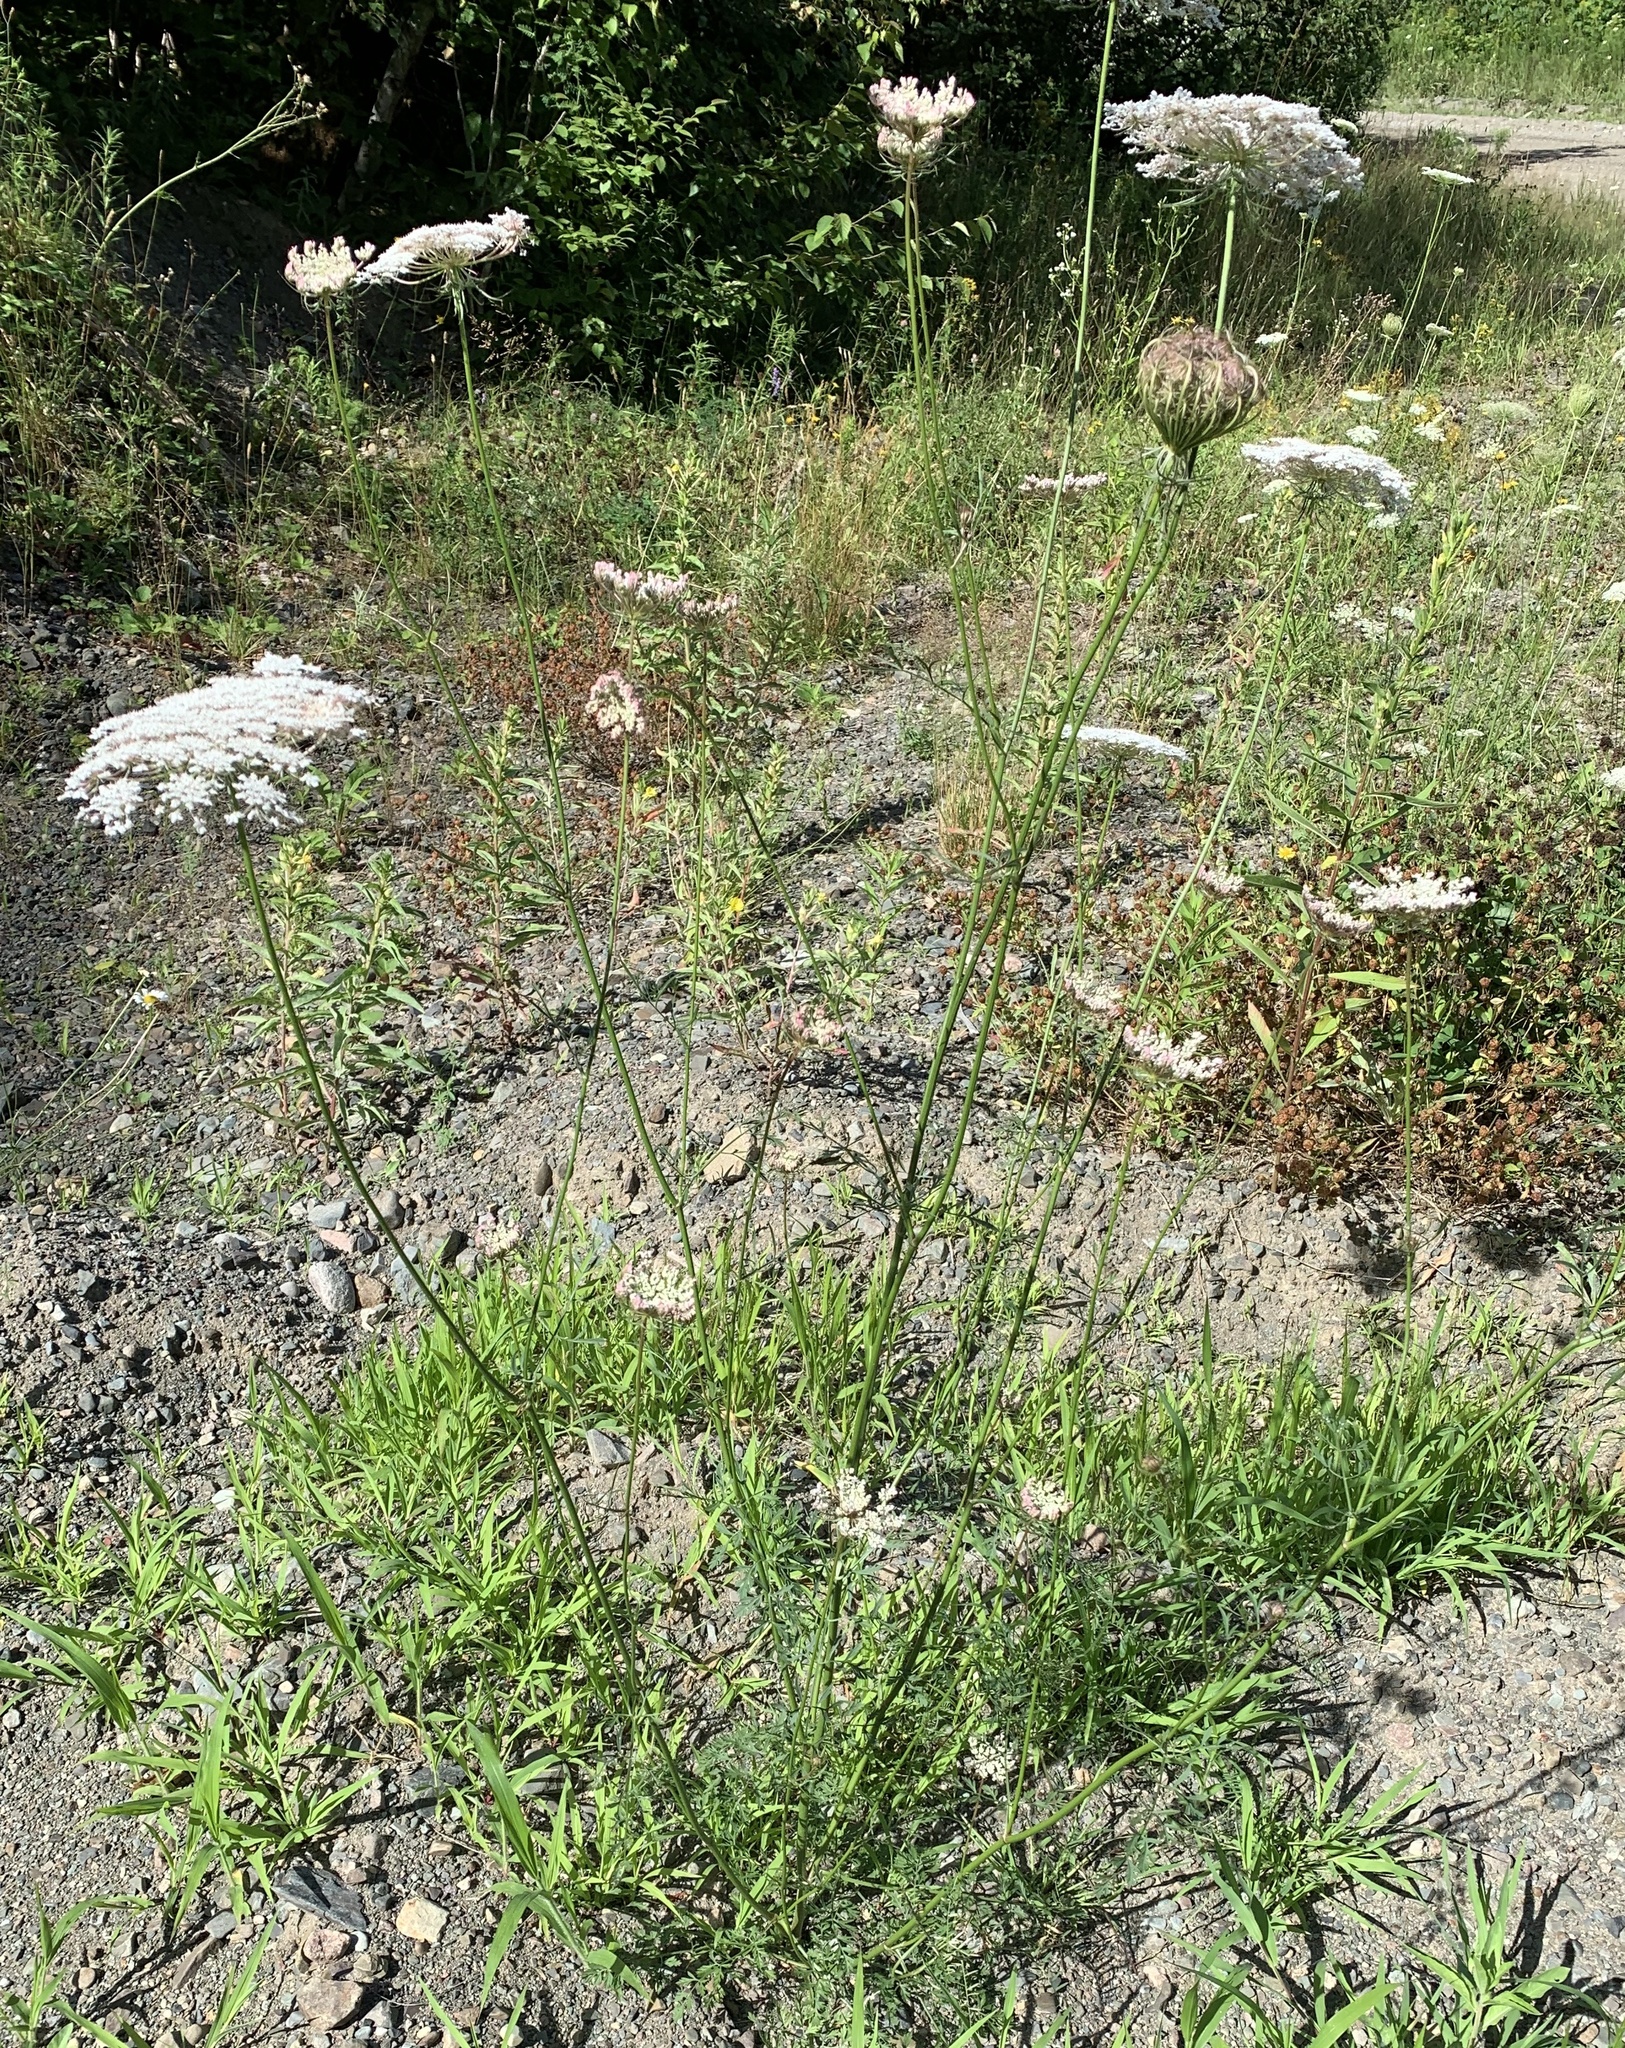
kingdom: Plantae
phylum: Tracheophyta
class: Magnoliopsida
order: Apiales
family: Apiaceae
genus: Daucus
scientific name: Daucus carota
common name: Wild carrot
